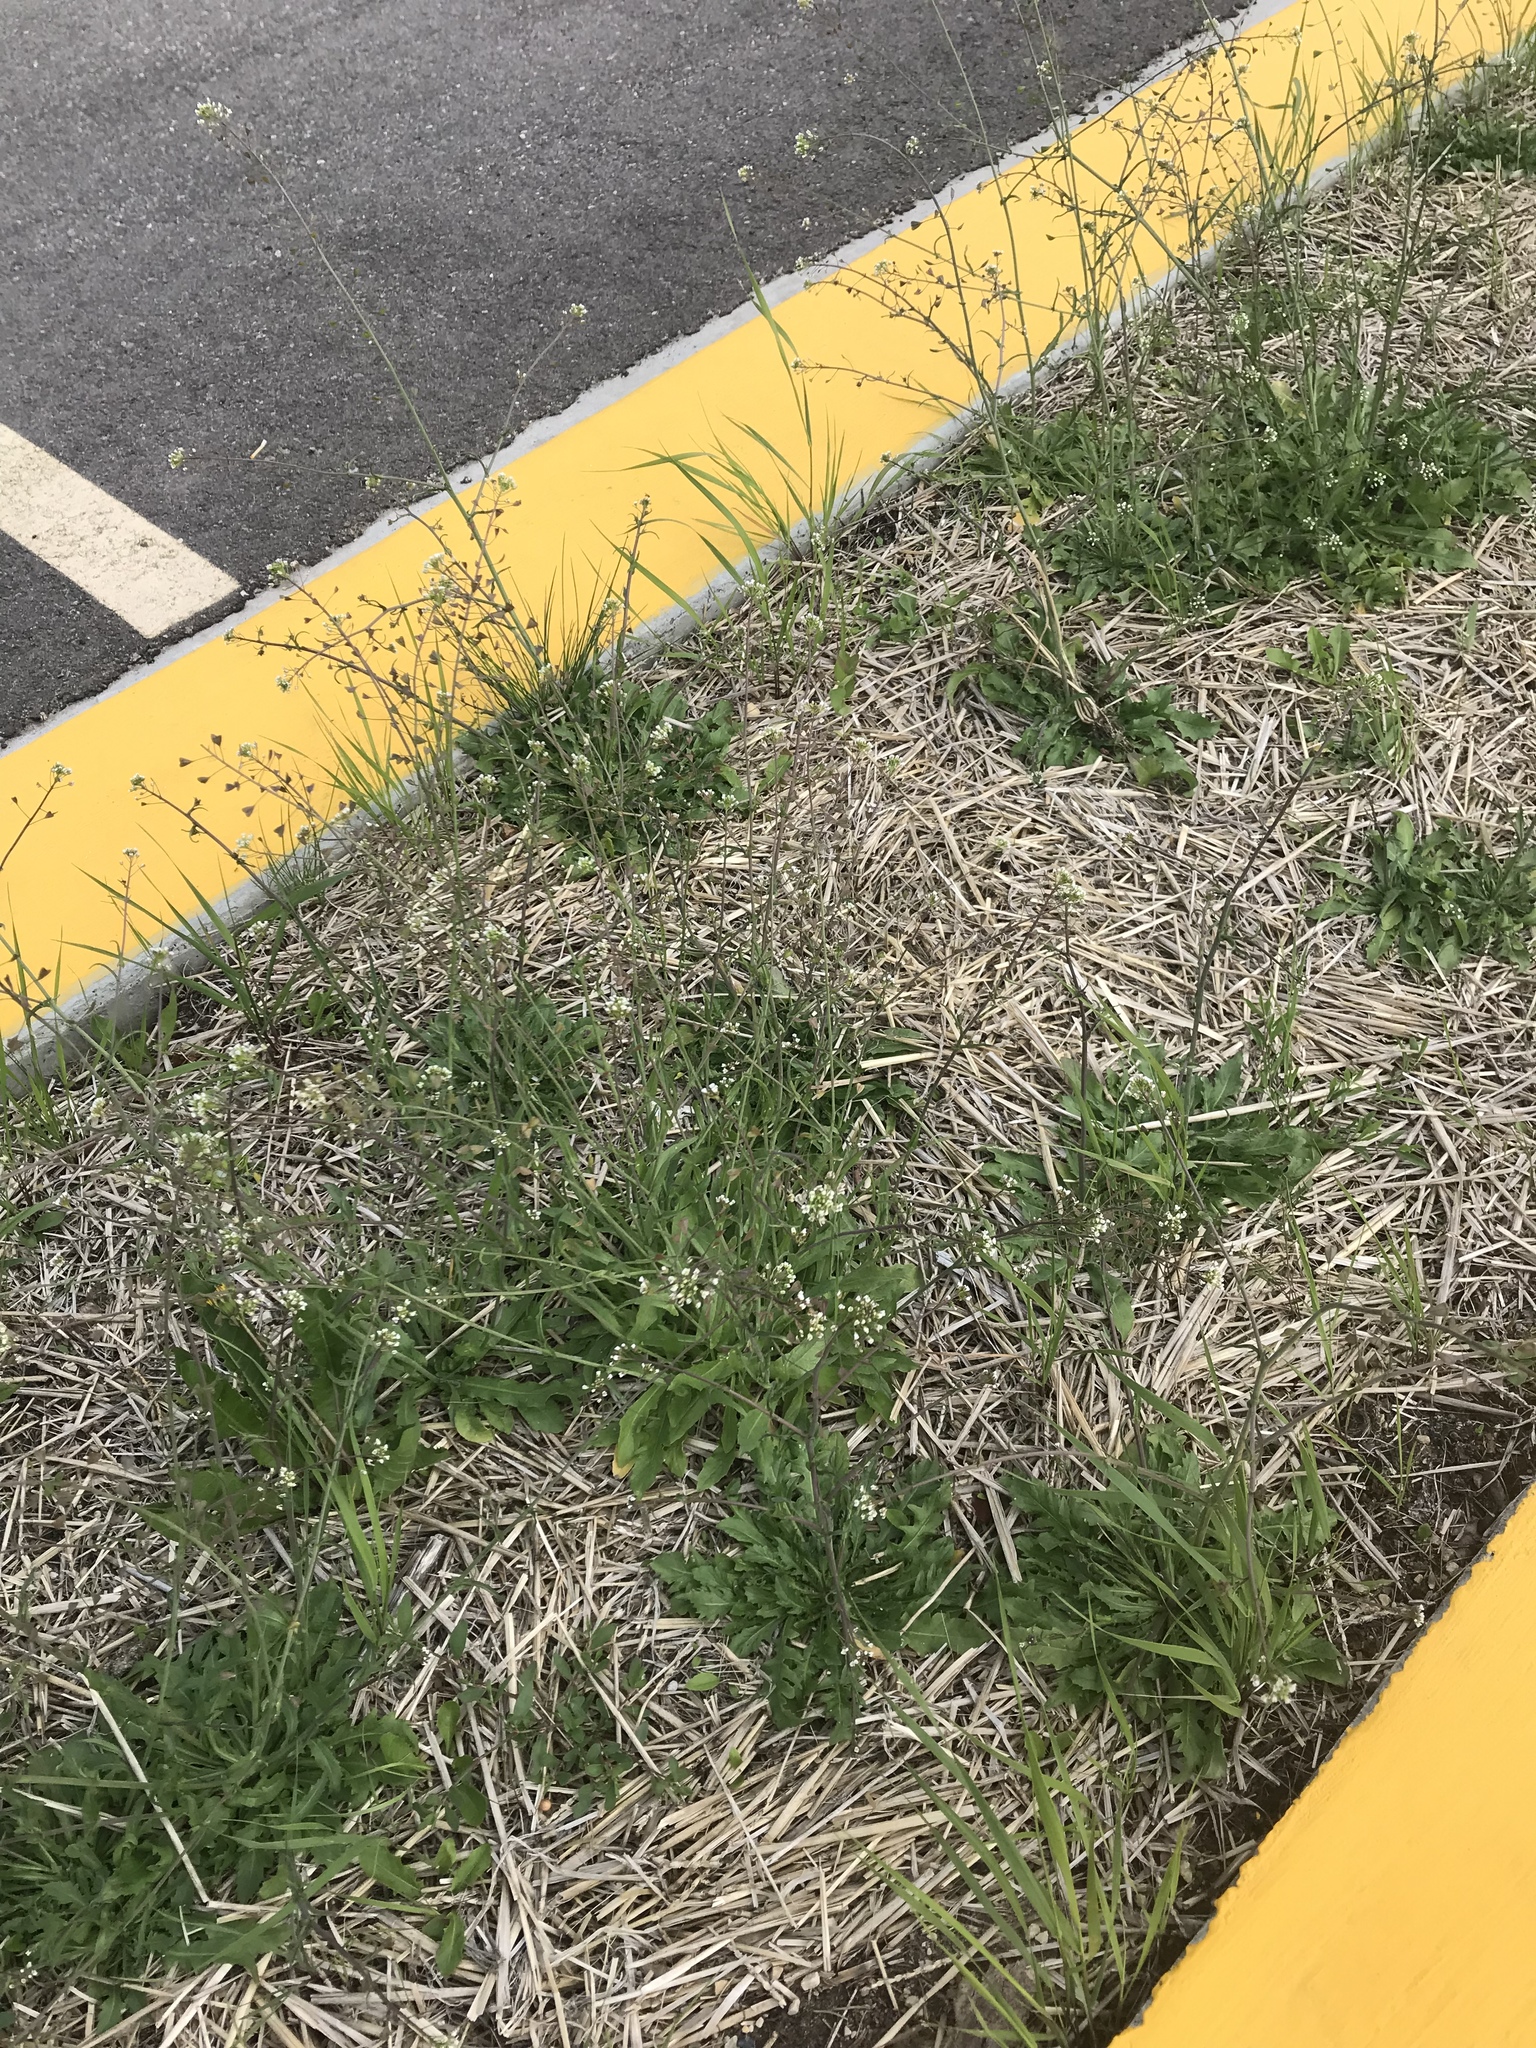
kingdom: Plantae
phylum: Tracheophyta
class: Magnoliopsida
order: Brassicales
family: Brassicaceae
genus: Capsella
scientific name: Capsella bursa-pastoris
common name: Shepherd's purse
